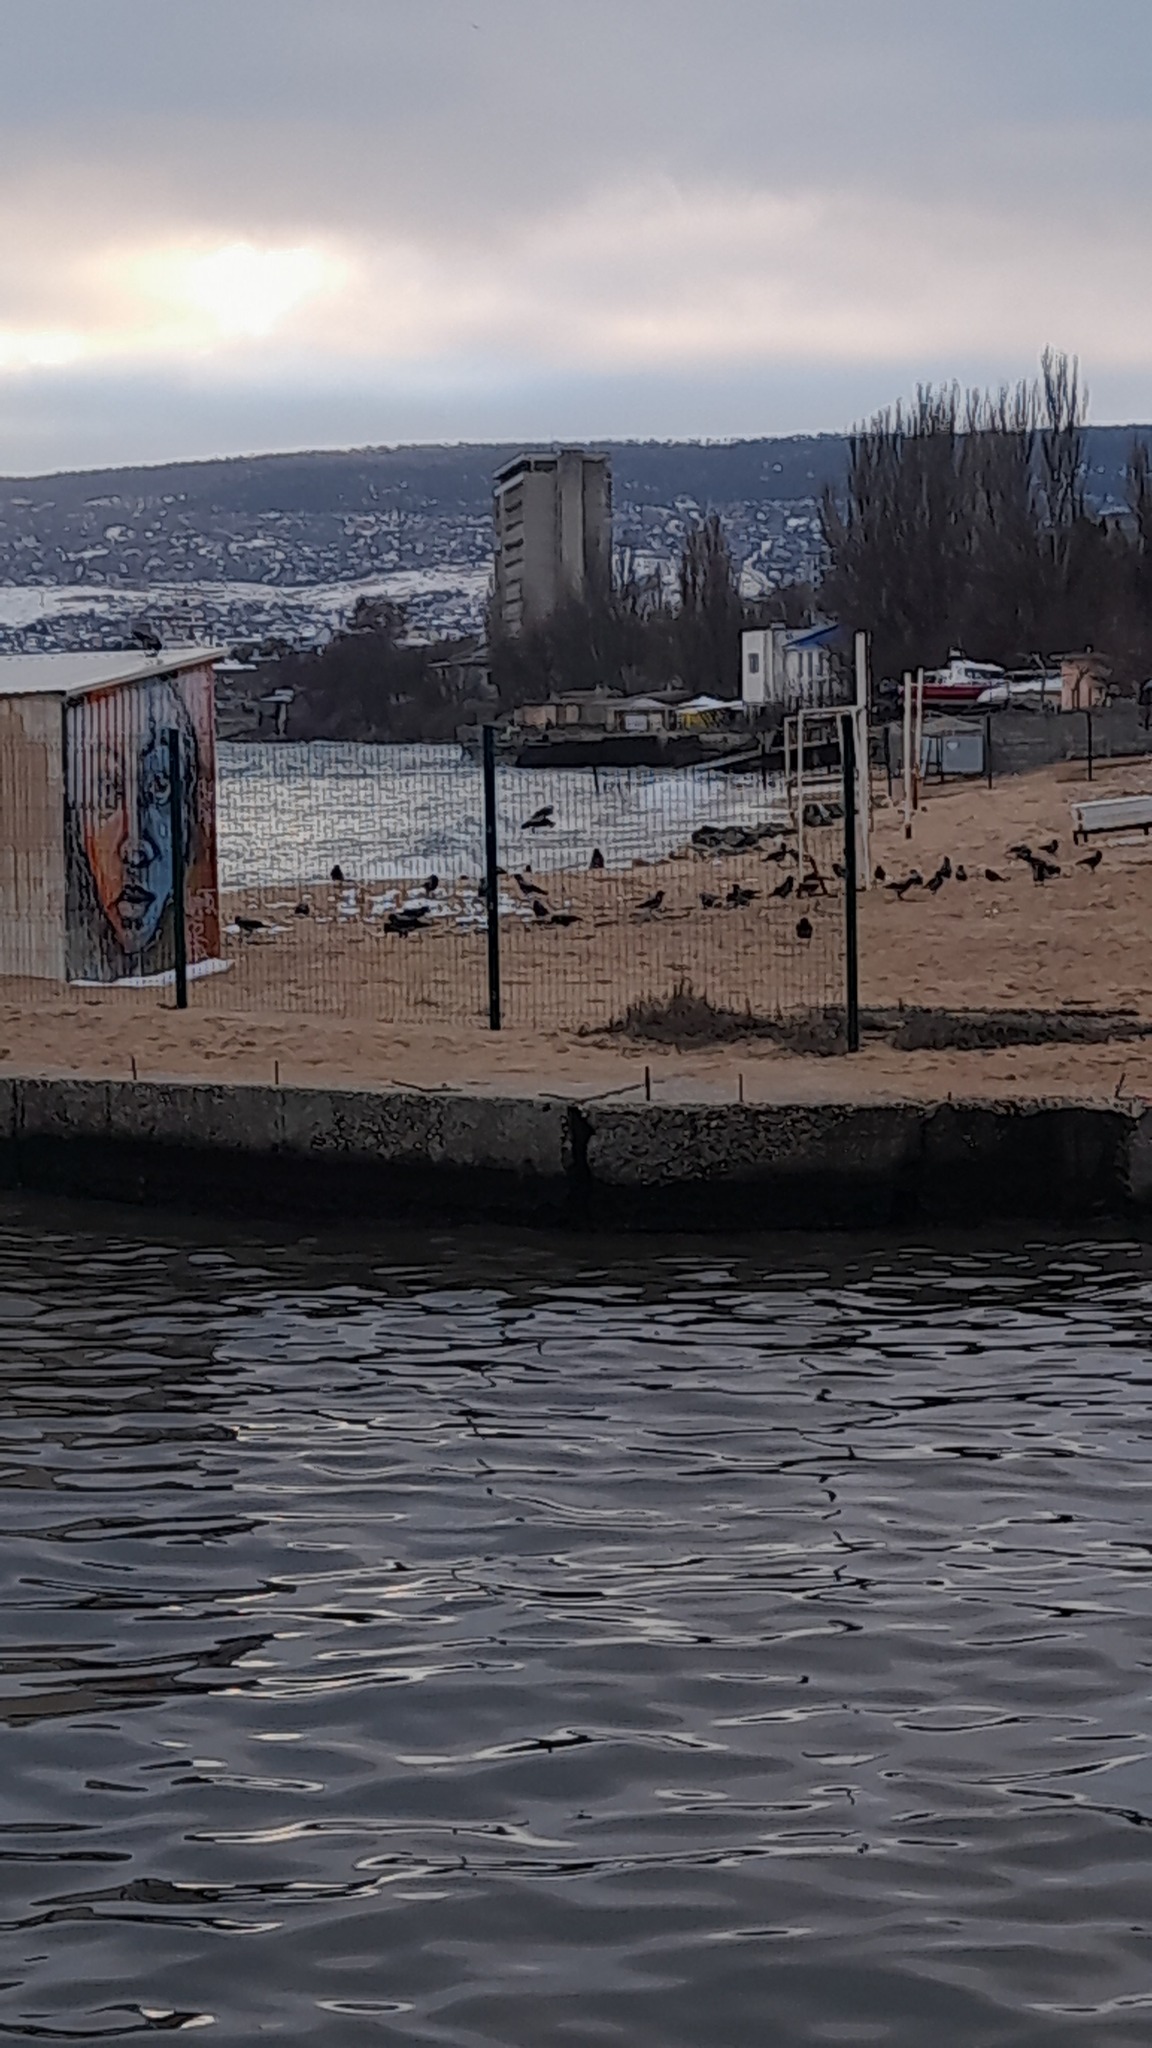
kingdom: Animalia
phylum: Chordata
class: Aves
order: Passeriformes
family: Corvidae
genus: Corvus
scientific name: Corvus cornix
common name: Hooded crow
